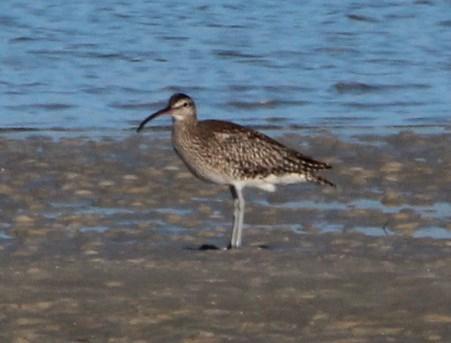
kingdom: Animalia
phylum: Chordata
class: Aves
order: Charadriiformes
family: Scolopacidae
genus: Numenius
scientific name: Numenius phaeopus
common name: Whimbrel
